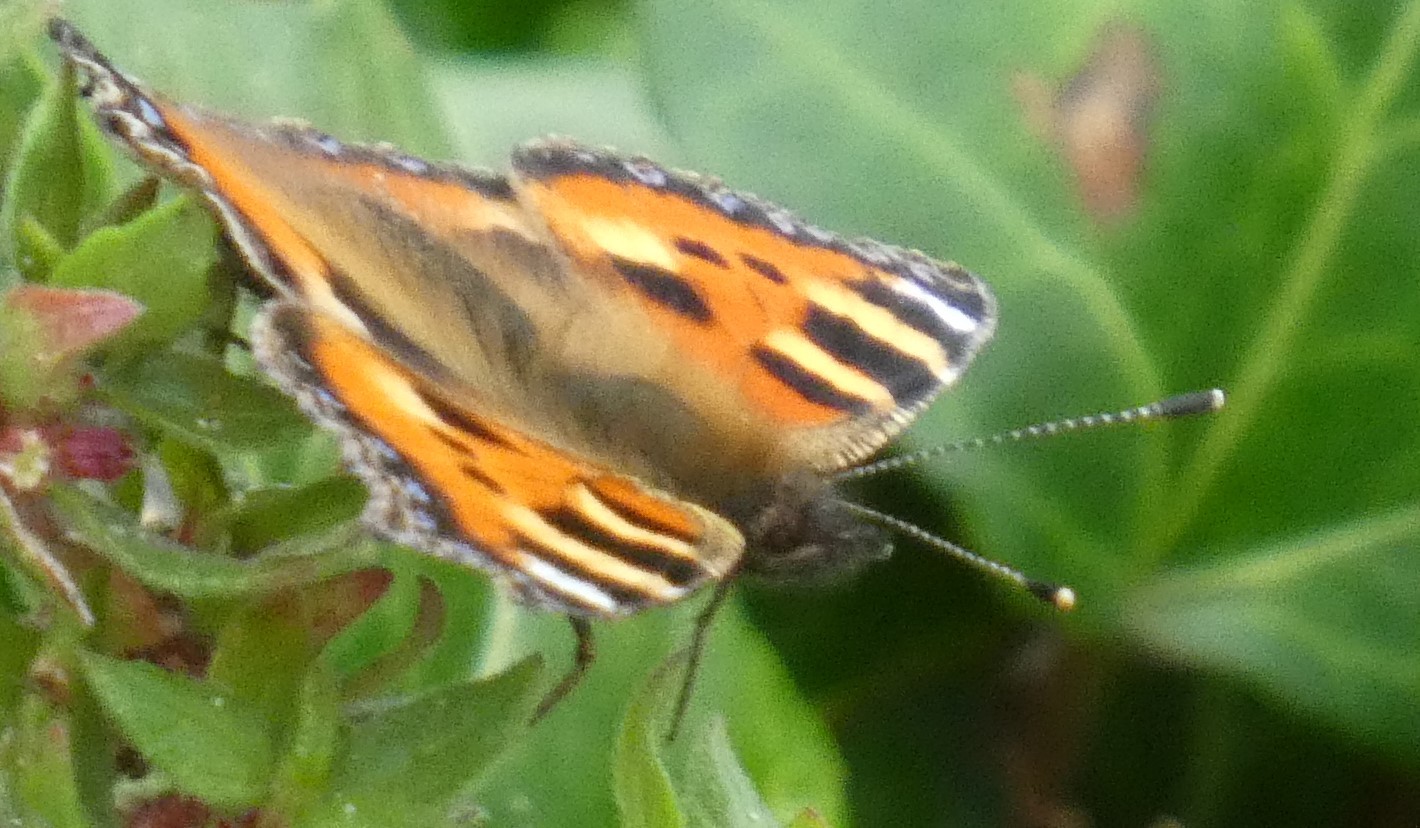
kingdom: Animalia
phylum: Arthropoda
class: Insecta
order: Lepidoptera
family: Nymphalidae
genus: Aglais
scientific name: Aglais urticae
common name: Small tortoiseshell
